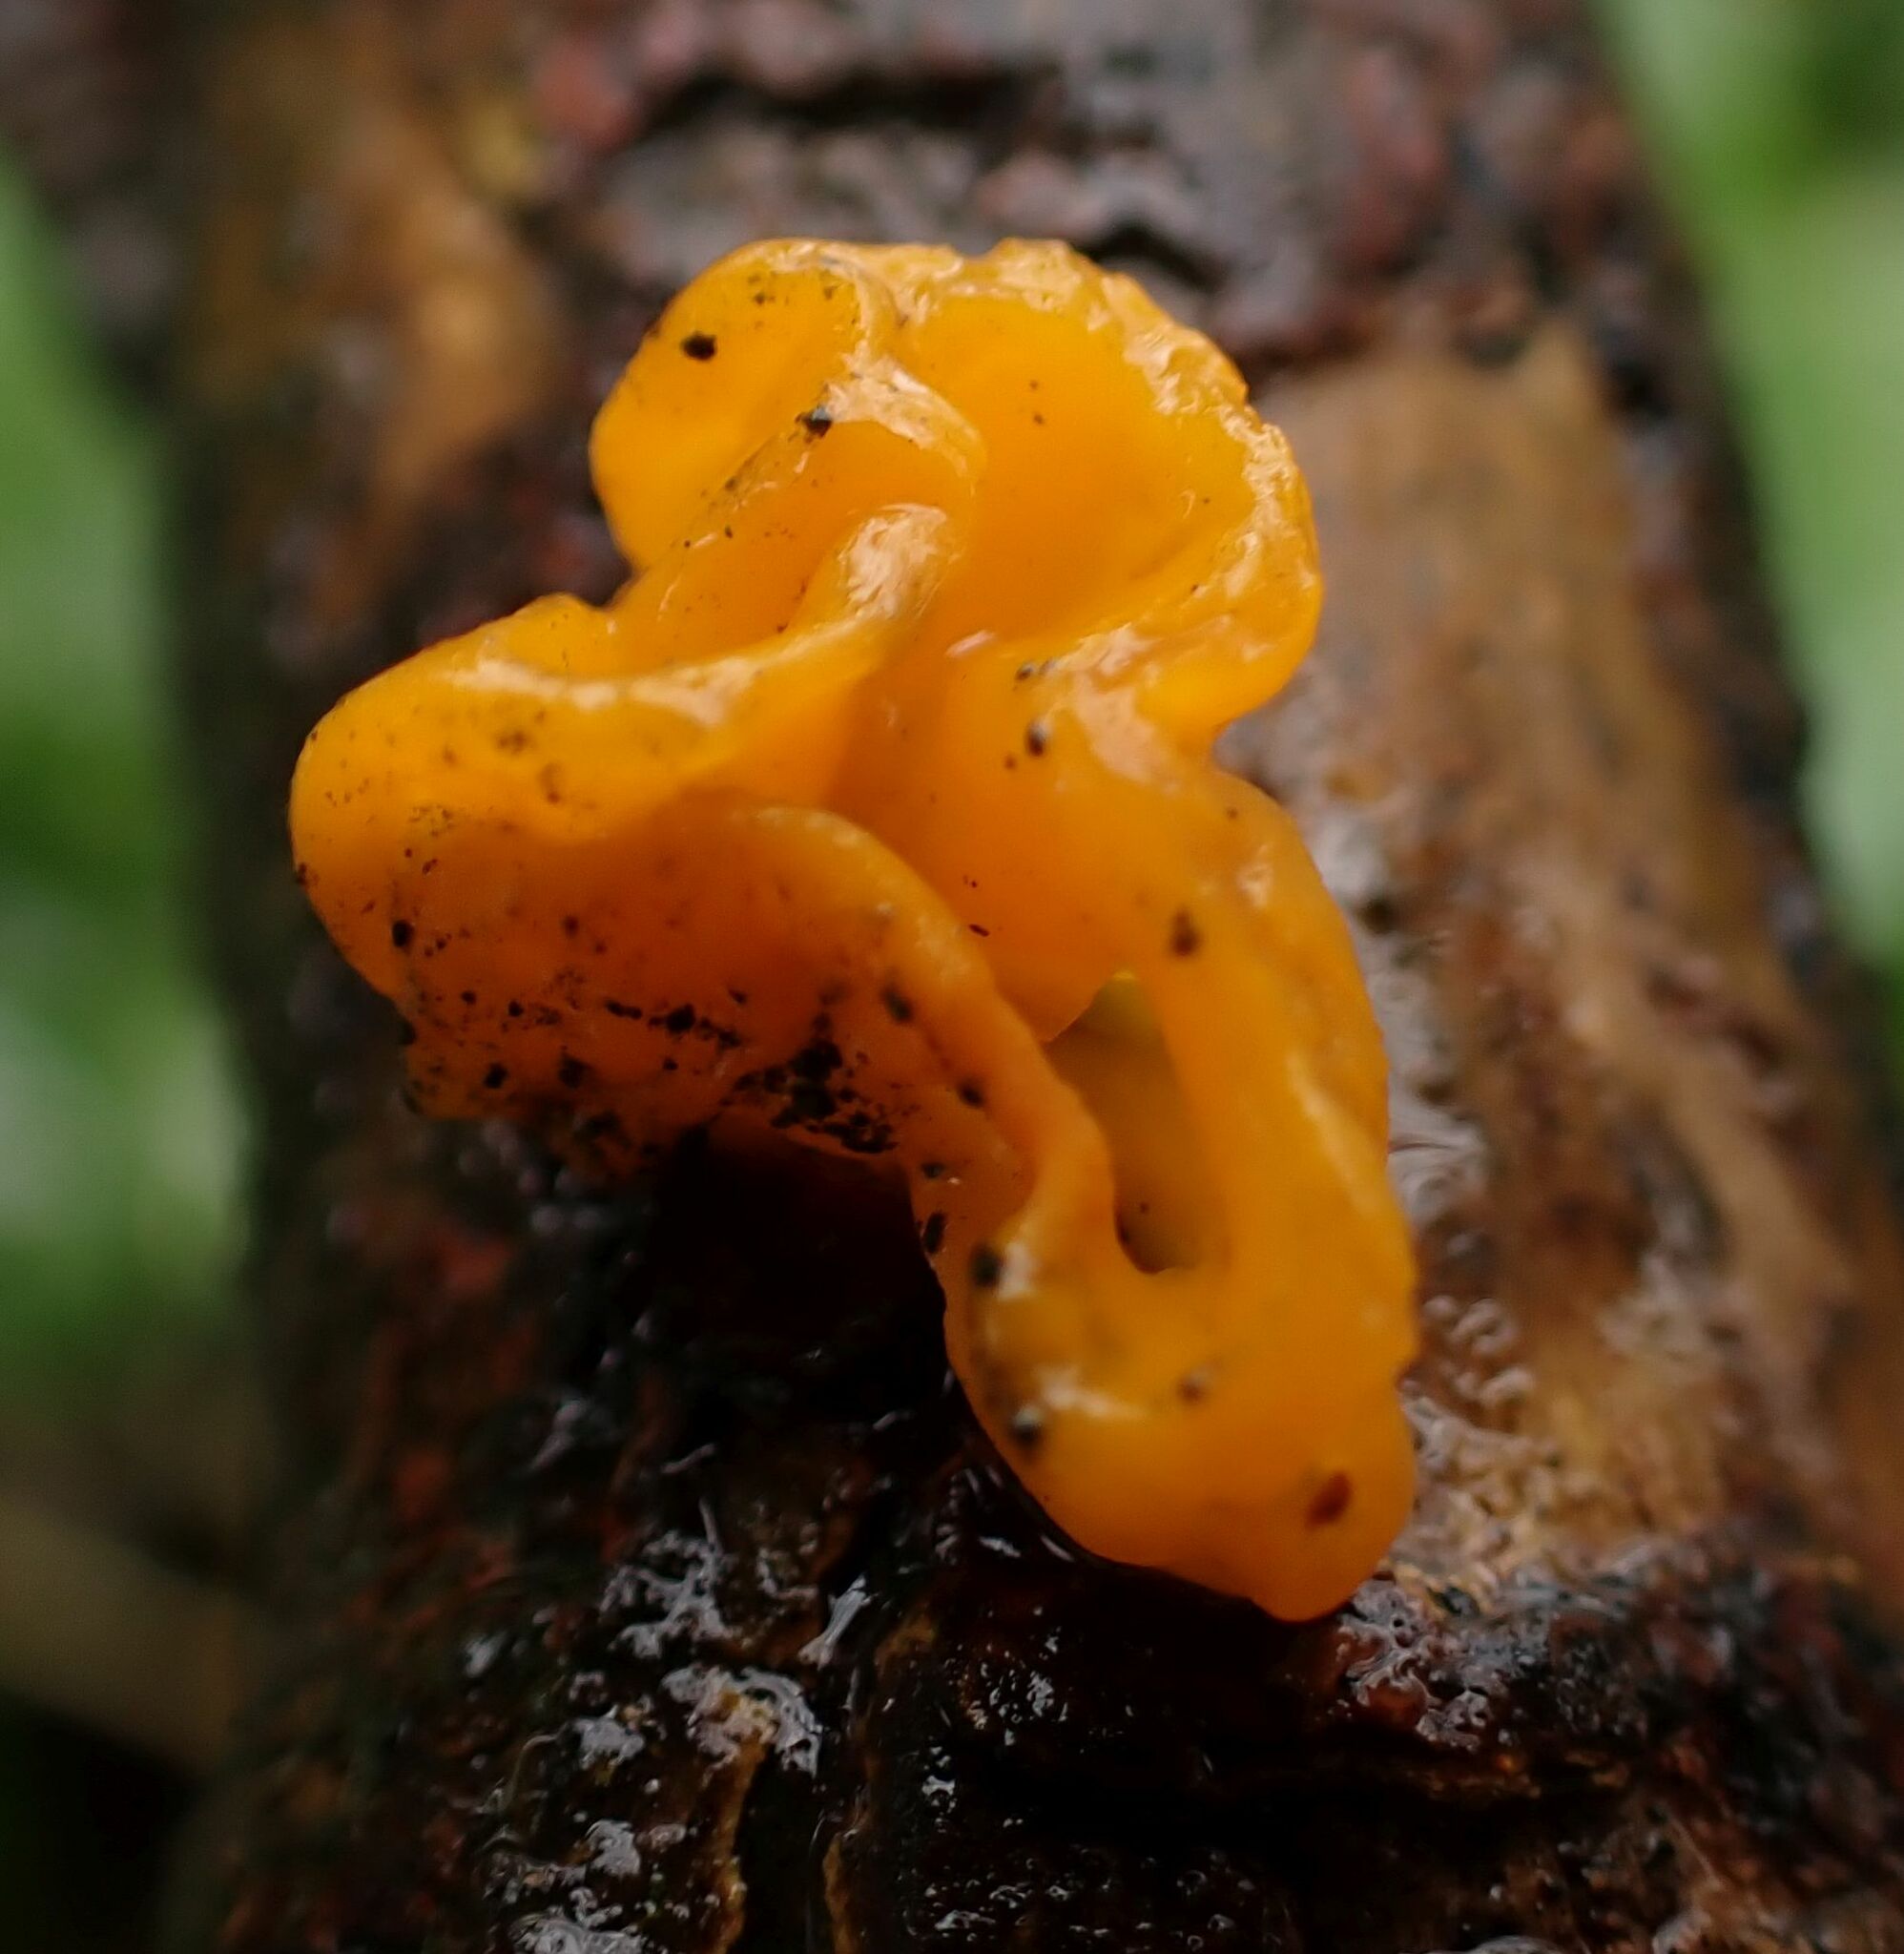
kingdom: Fungi
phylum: Basidiomycota
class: Tremellomycetes
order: Tremellales
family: Tremellaceae
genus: Tremella
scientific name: Tremella mesenterica
